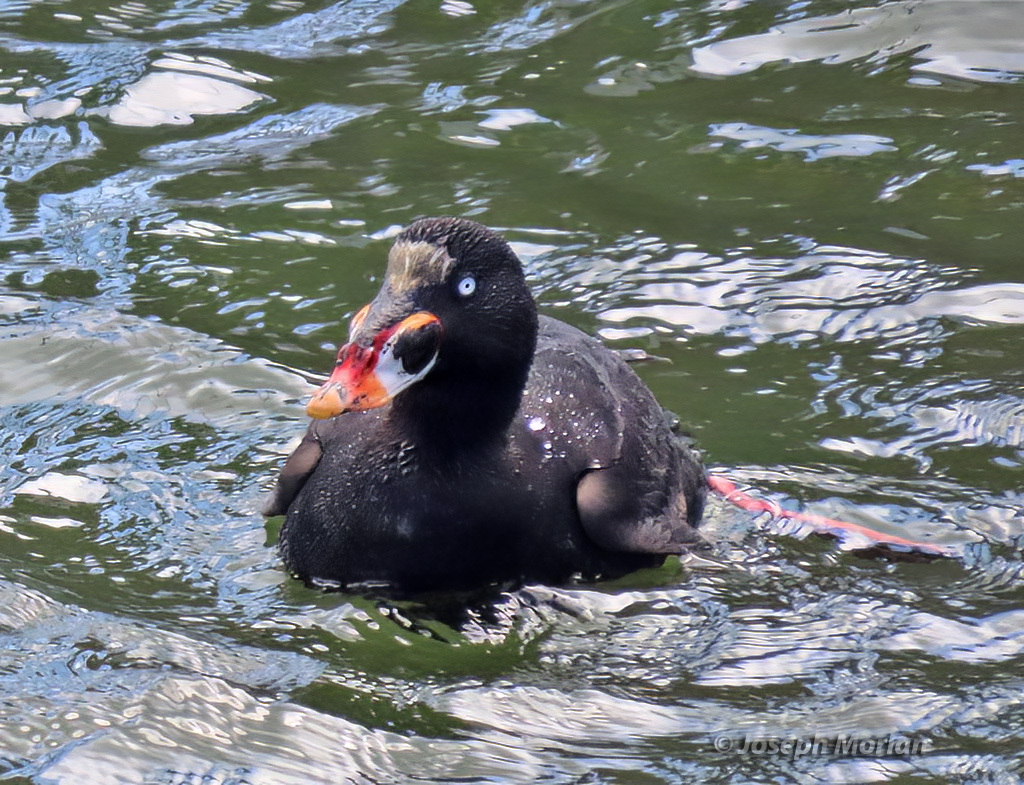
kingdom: Animalia
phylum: Chordata
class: Aves
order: Anseriformes
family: Anatidae
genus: Melanitta
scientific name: Melanitta perspicillata
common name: Surf scoter
